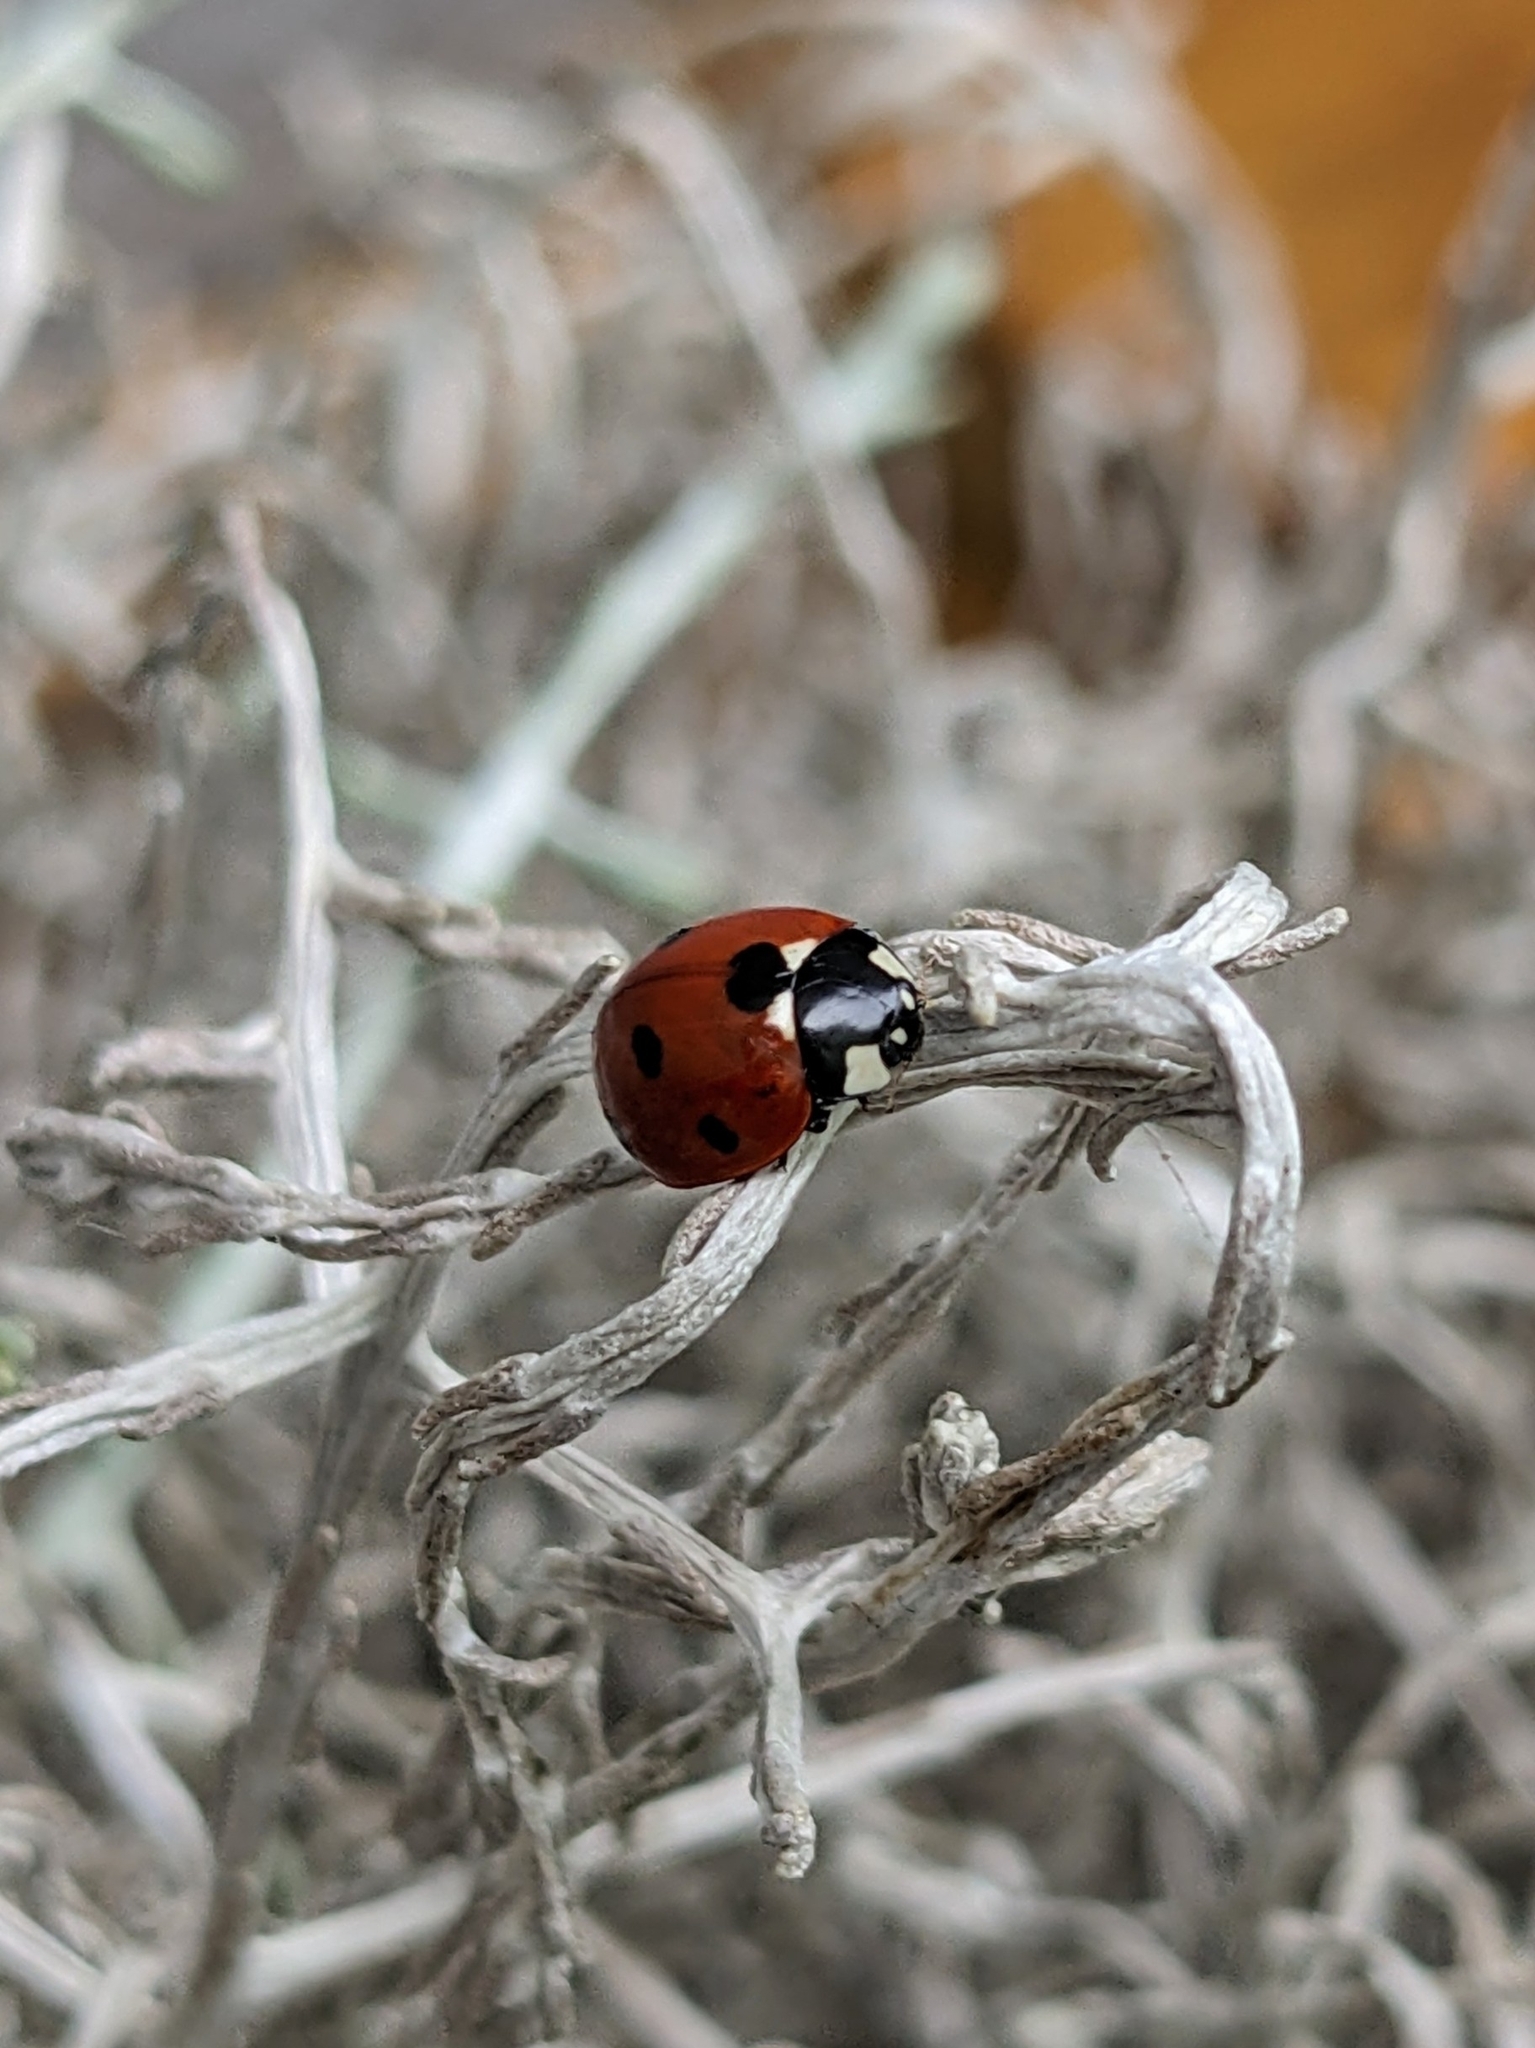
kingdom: Animalia
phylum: Arthropoda
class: Insecta
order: Coleoptera
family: Coccinellidae
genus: Coccinella
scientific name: Coccinella septempunctata
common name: Sevenspotted lady beetle
